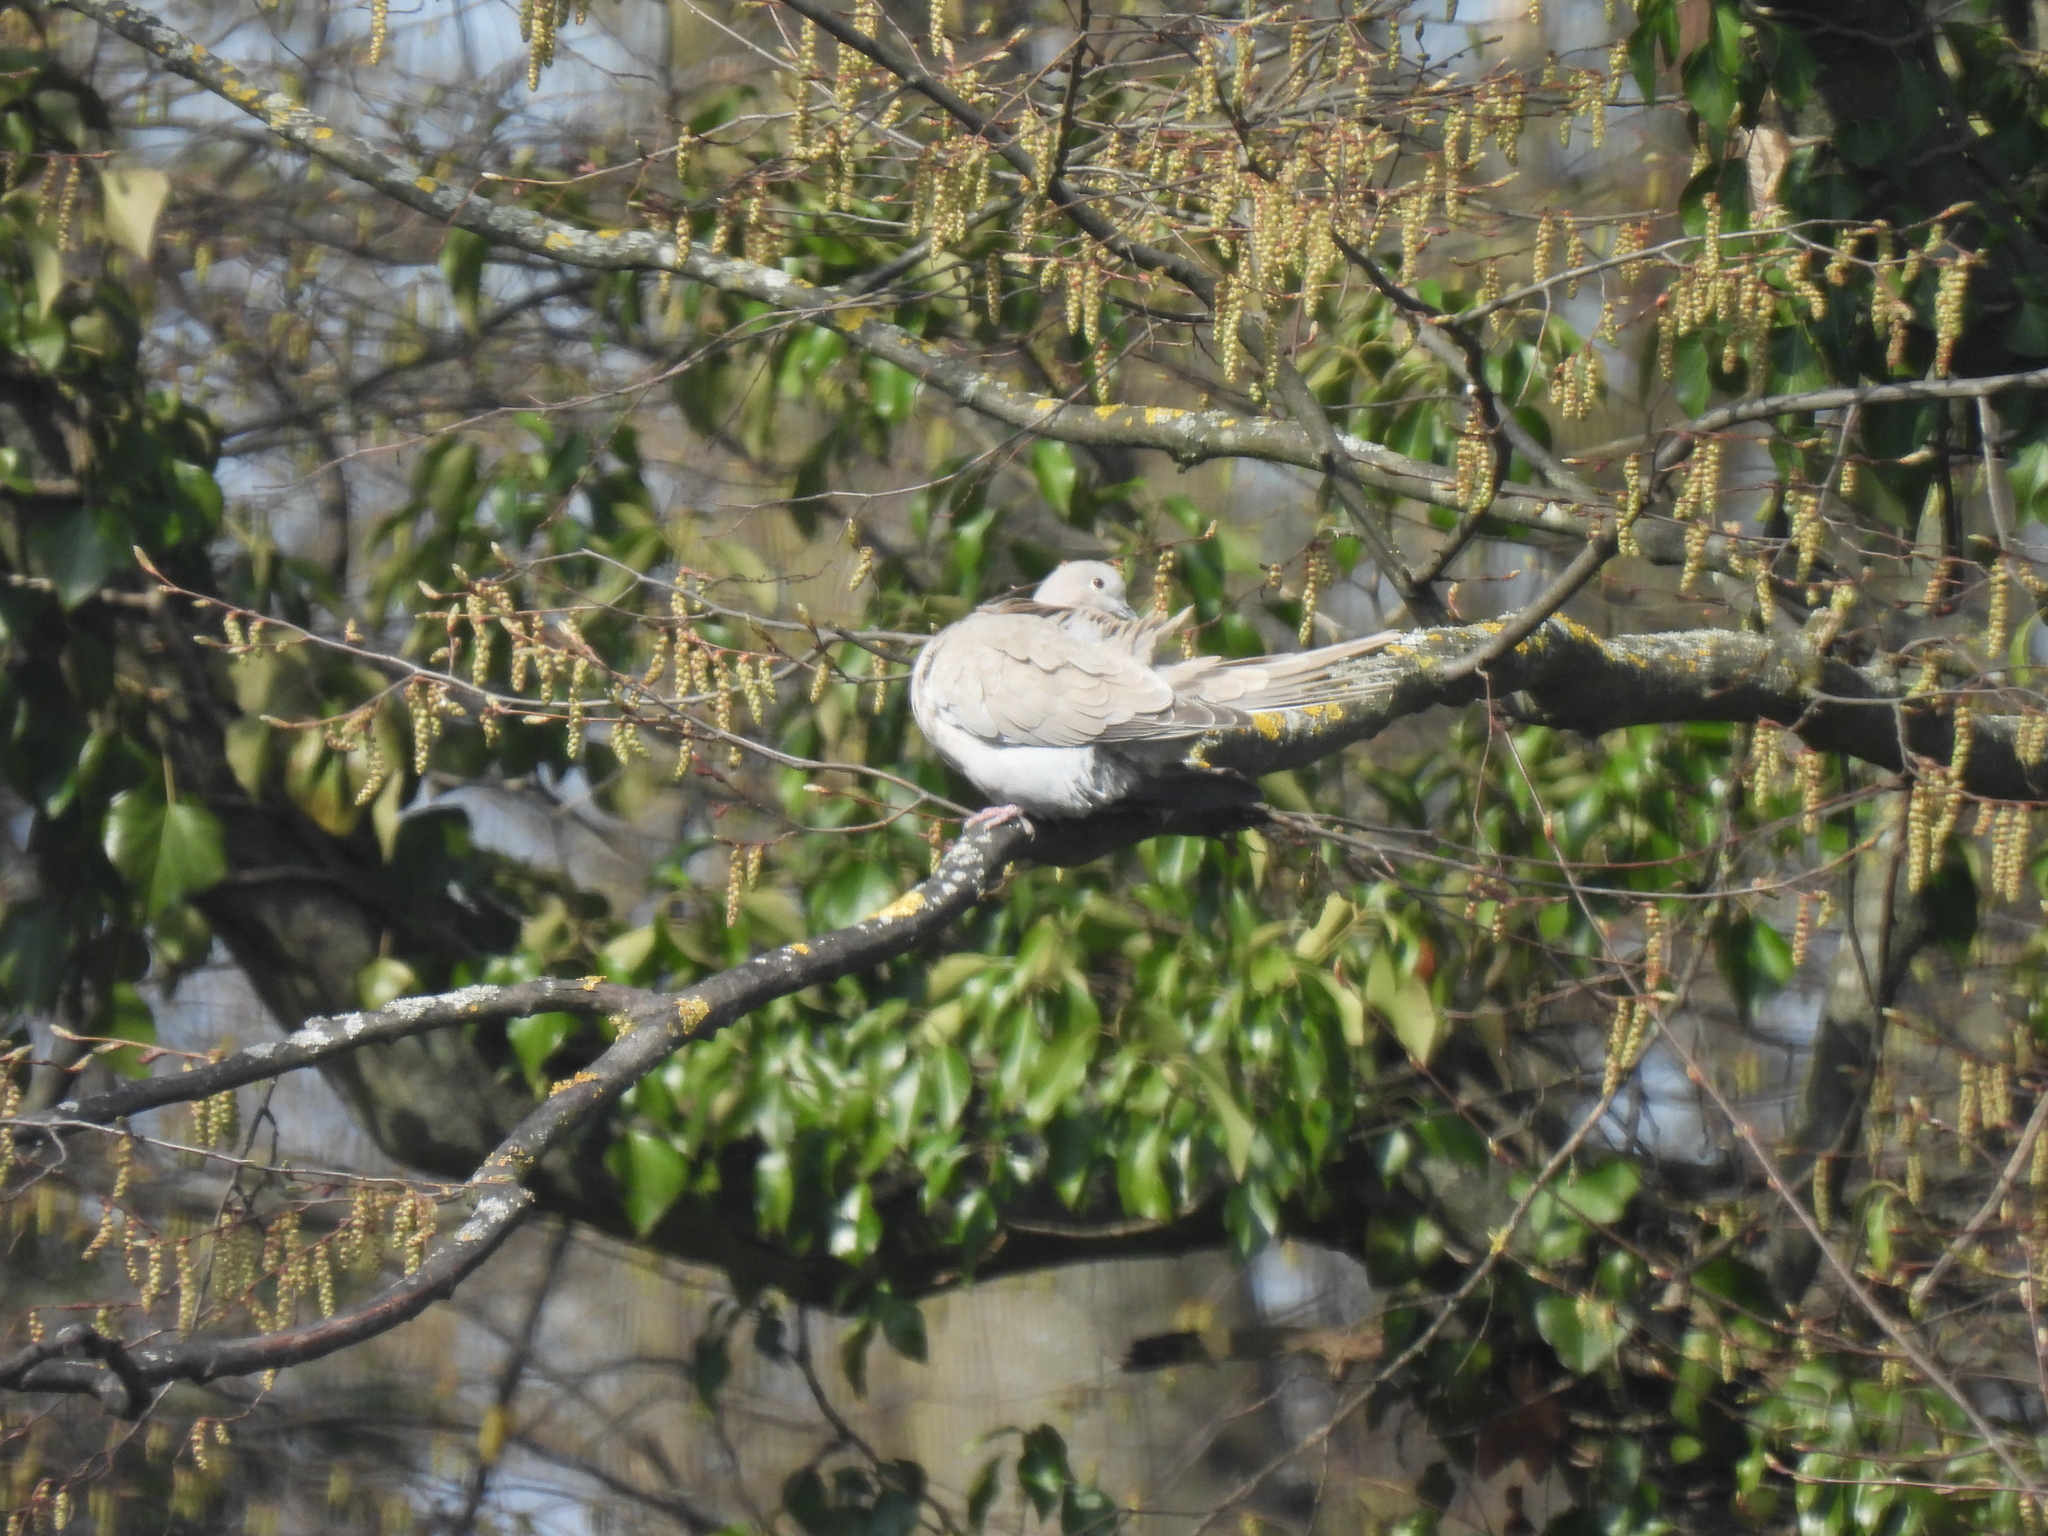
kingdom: Animalia
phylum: Chordata
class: Aves
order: Columbiformes
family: Columbidae
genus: Streptopelia
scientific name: Streptopelia decaocto
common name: Eurasian collared dove
